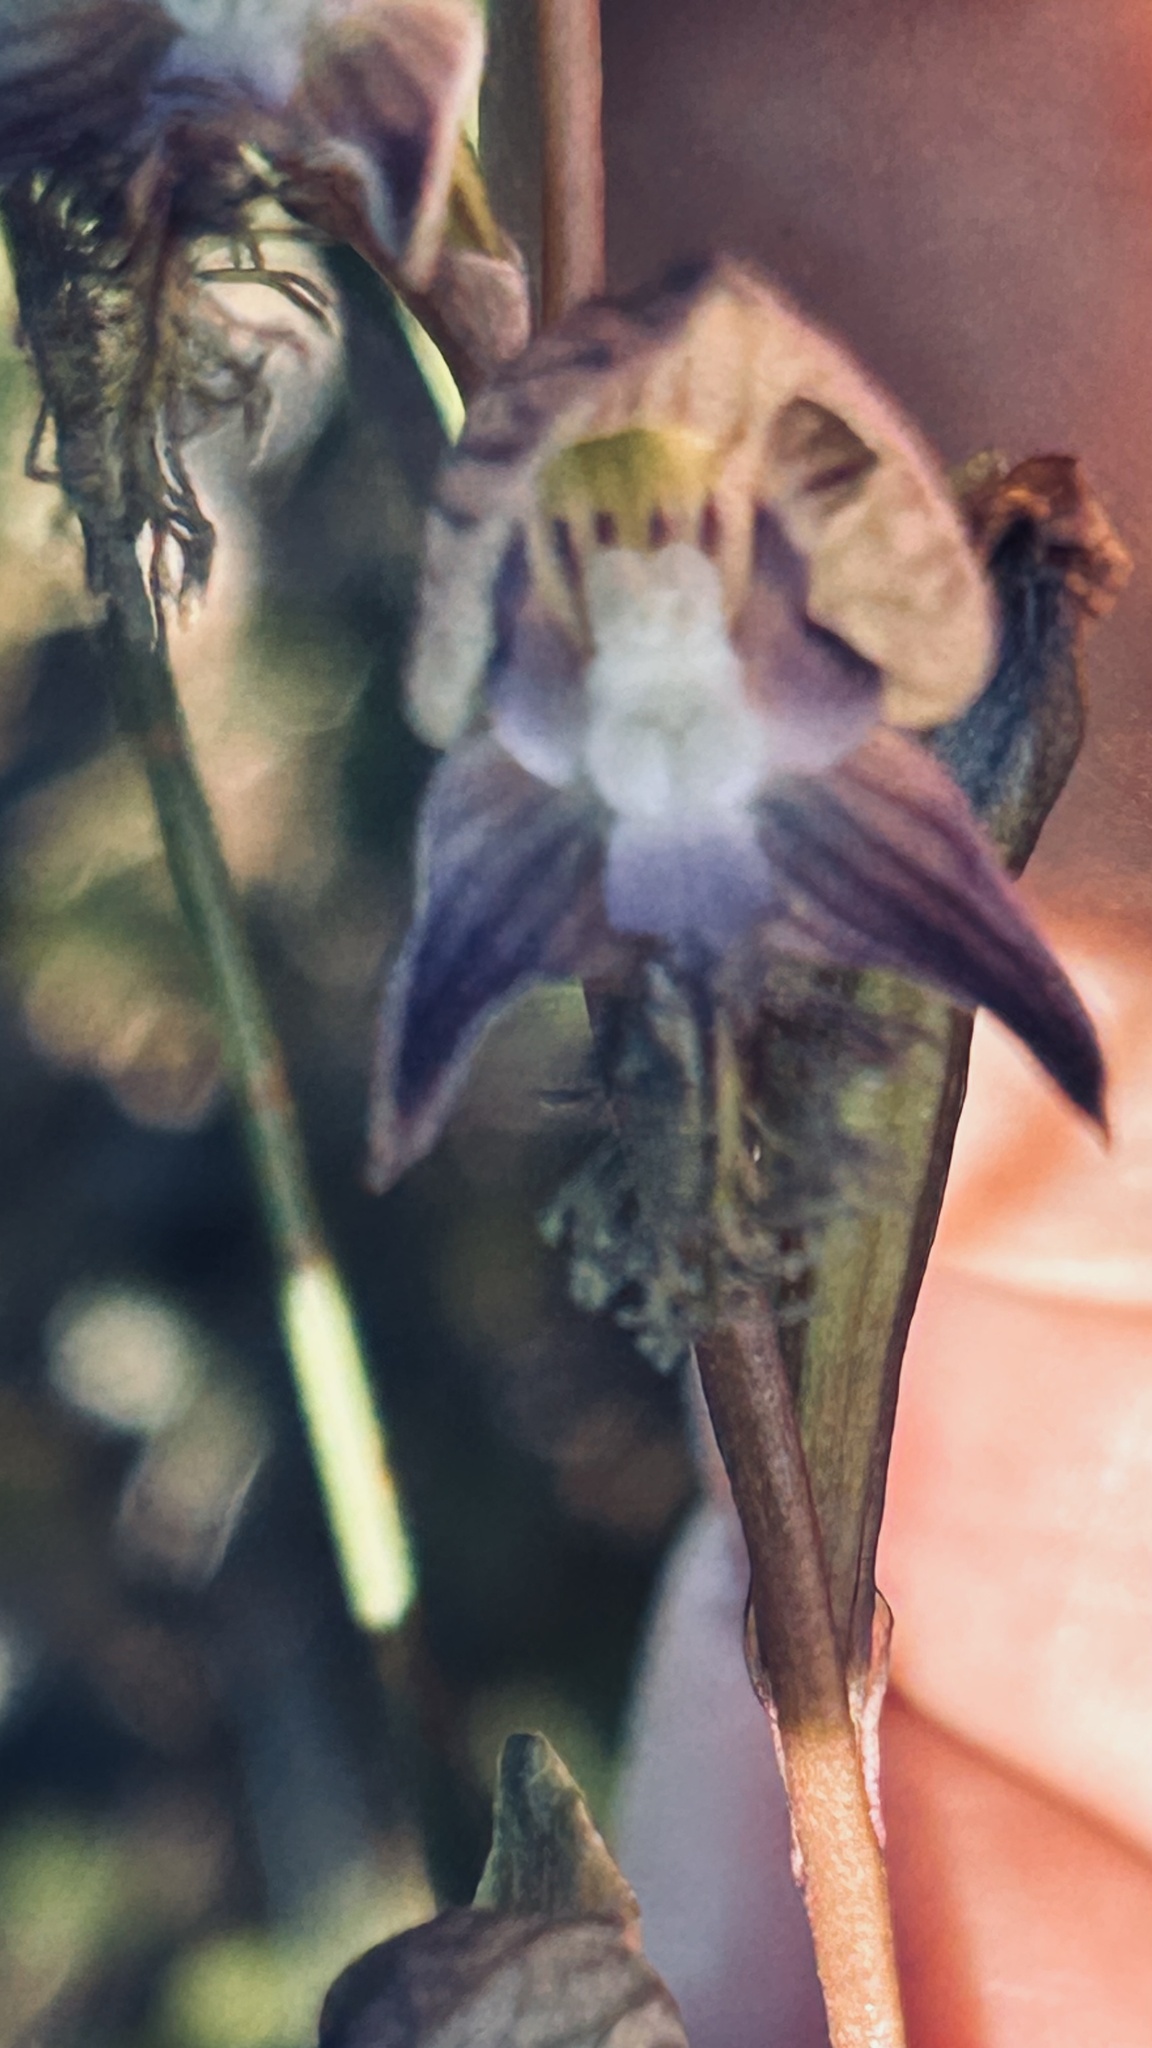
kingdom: Plantae
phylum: Tracheophyta
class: Liliopsida
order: Asparagales
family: Orchidaceae
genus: Disa
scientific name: Disa lugens
